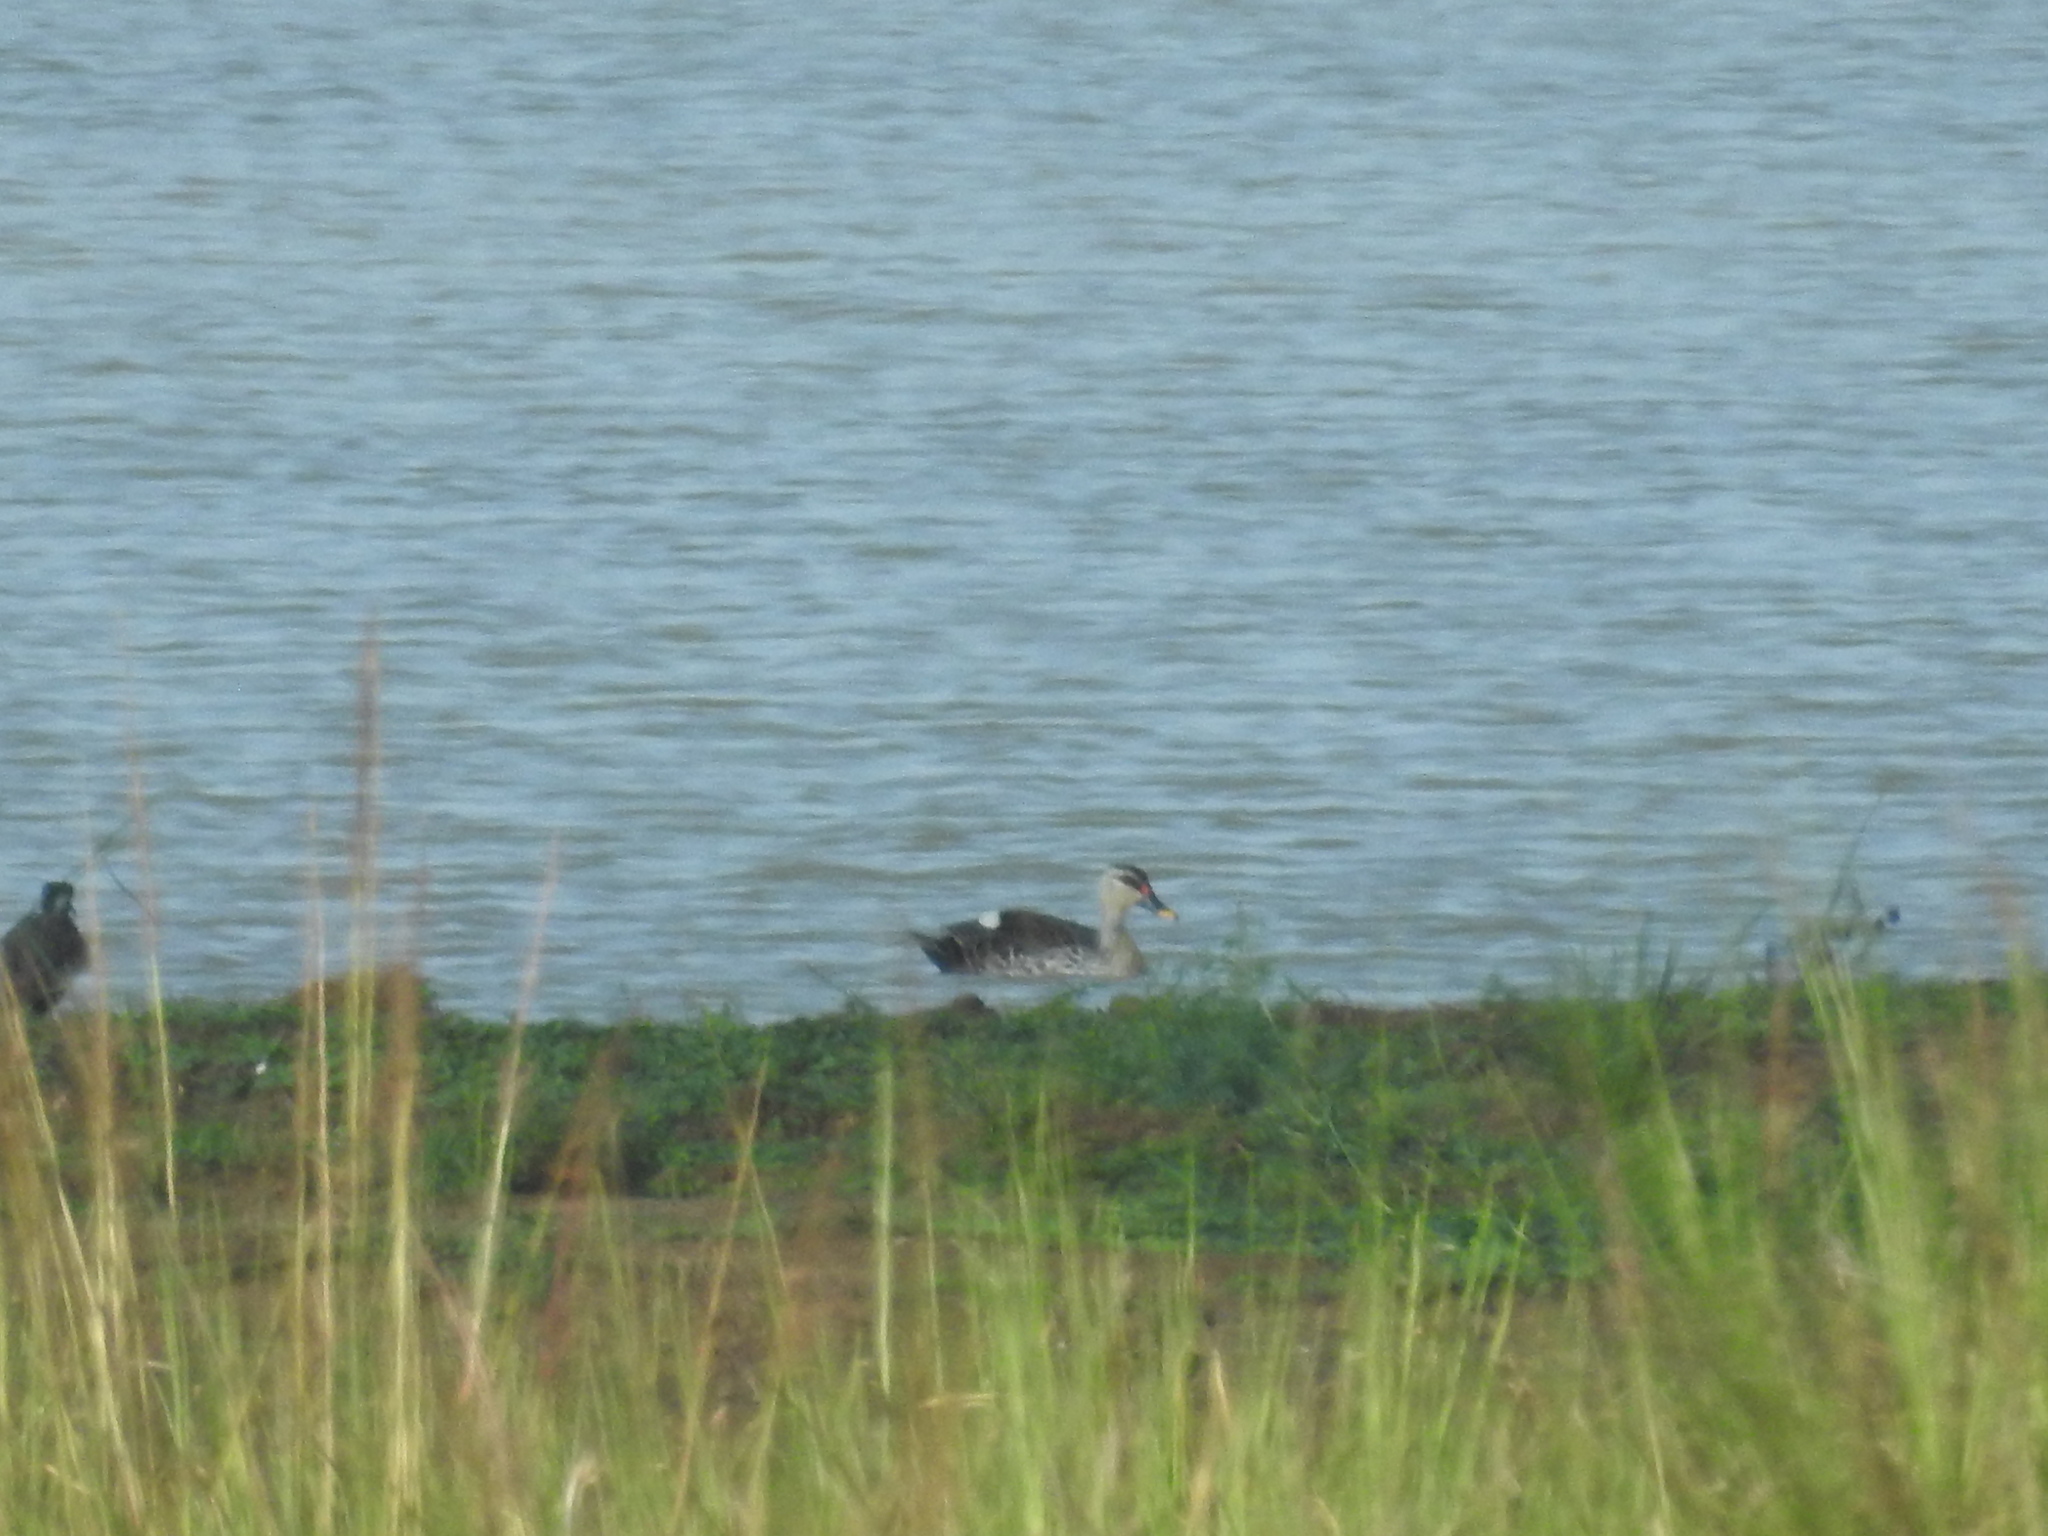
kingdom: Animalia
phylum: Chordata
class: Aves
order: Anseriformes
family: Anatidae
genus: Anas
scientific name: Anas poecilorhyncha
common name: Indian spot-billed duck
